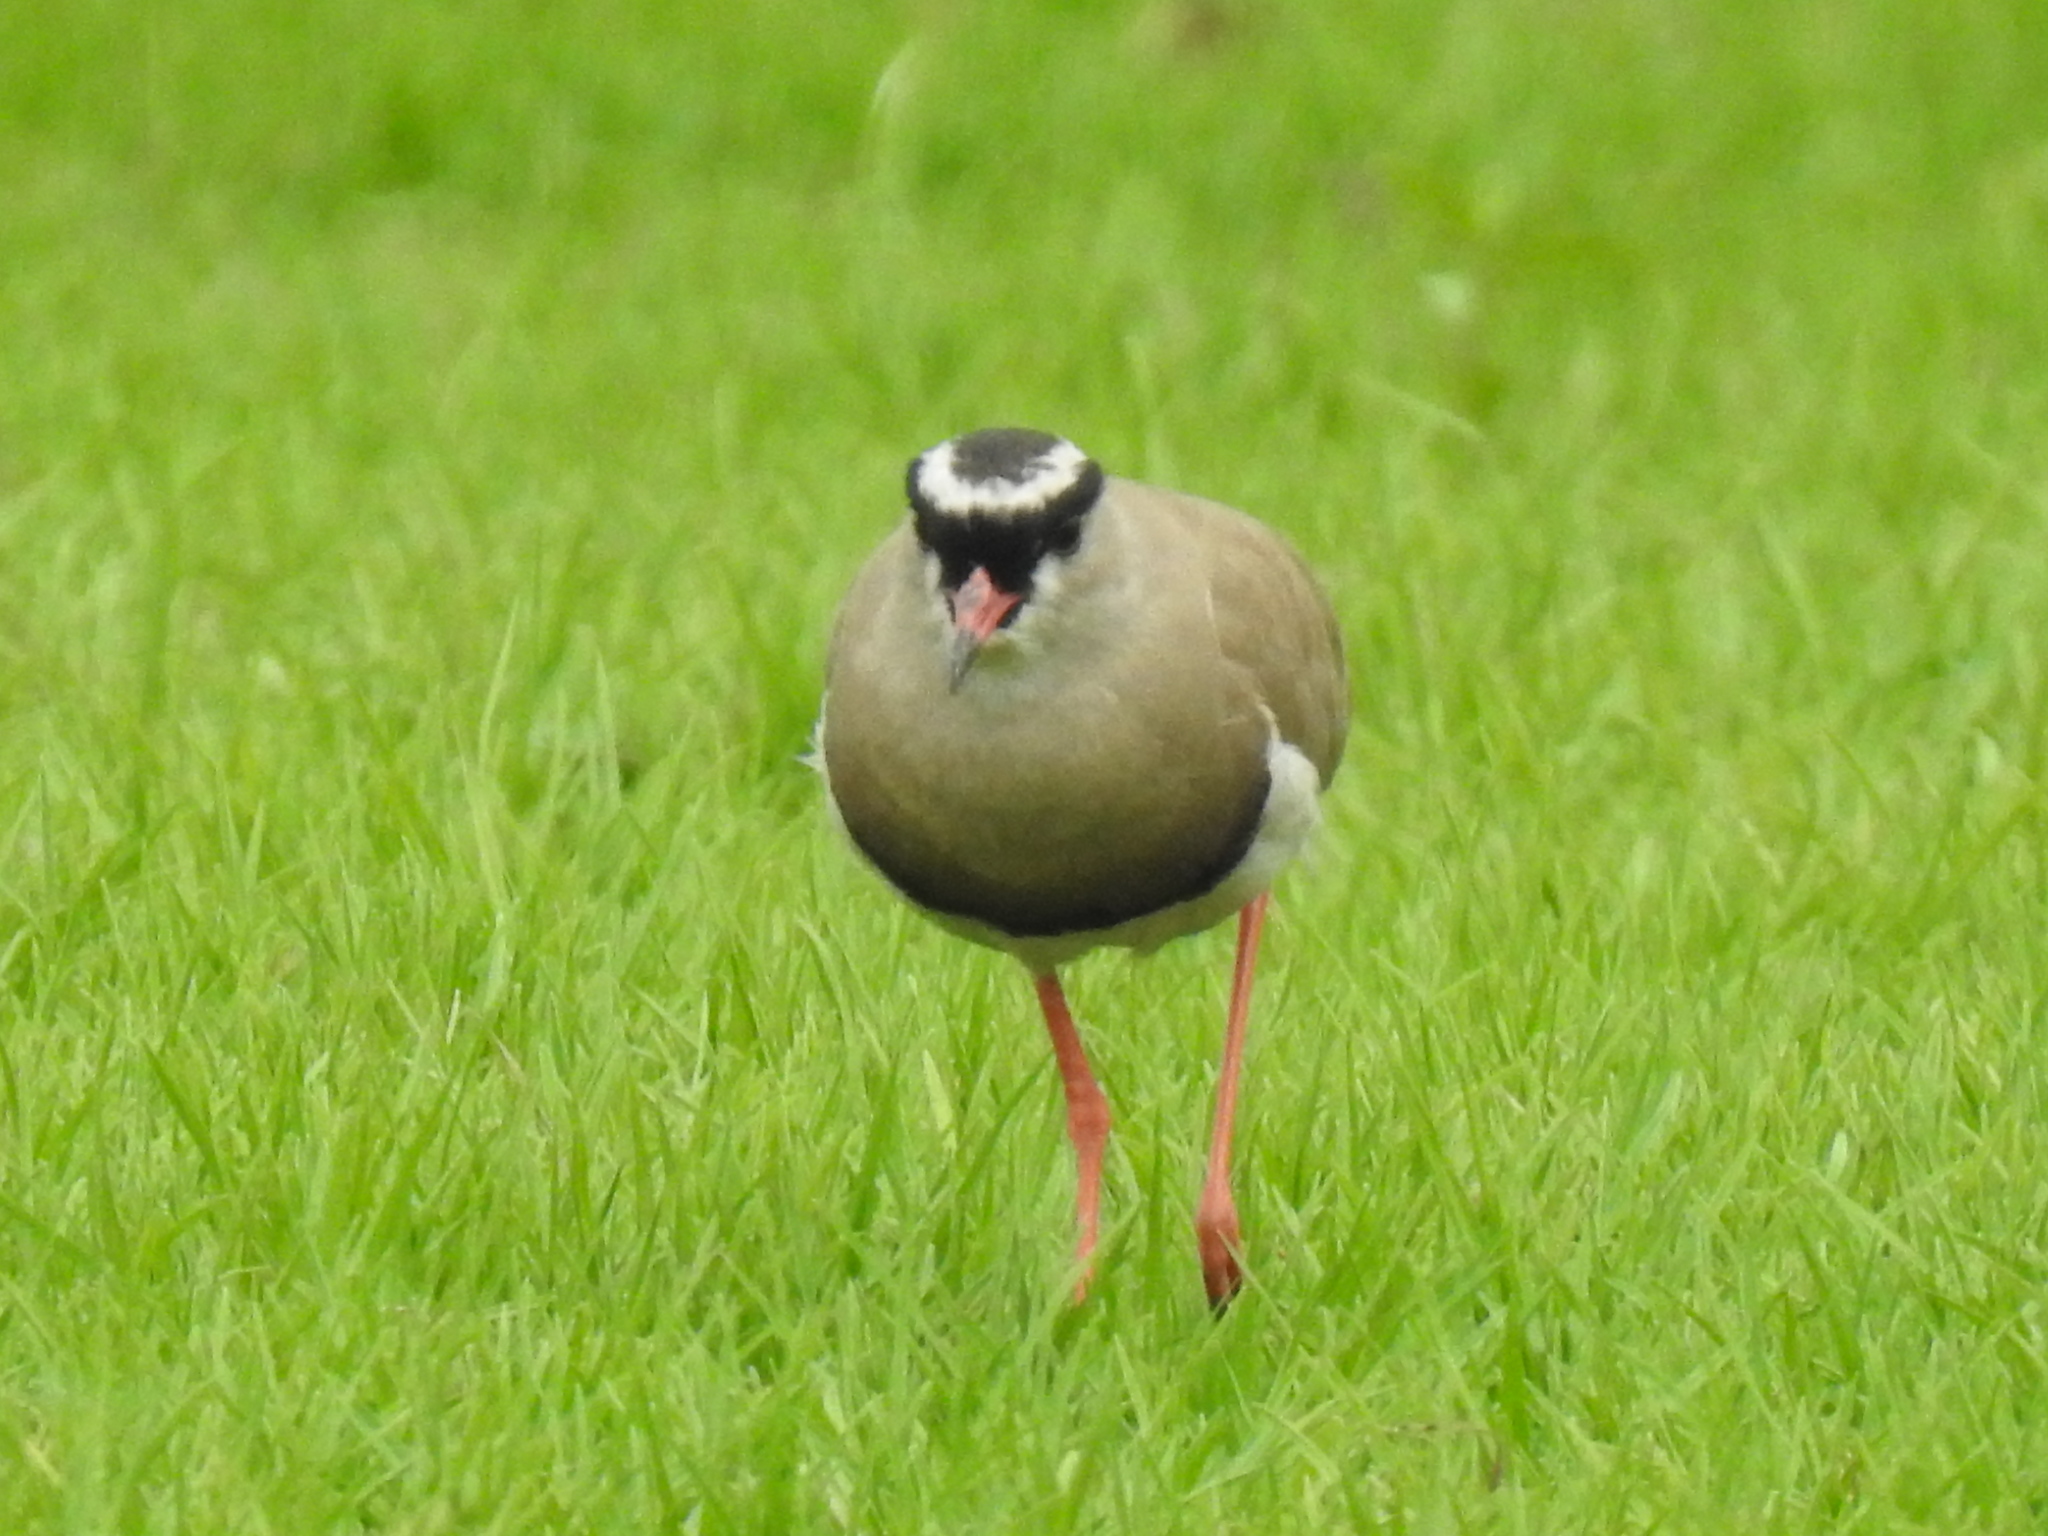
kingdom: Animalia
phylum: Chordata
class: Aves
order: Charadriiformes
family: Charadriidae
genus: Vanellus
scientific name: Vanellus coronatus
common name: Crowned lapwing
